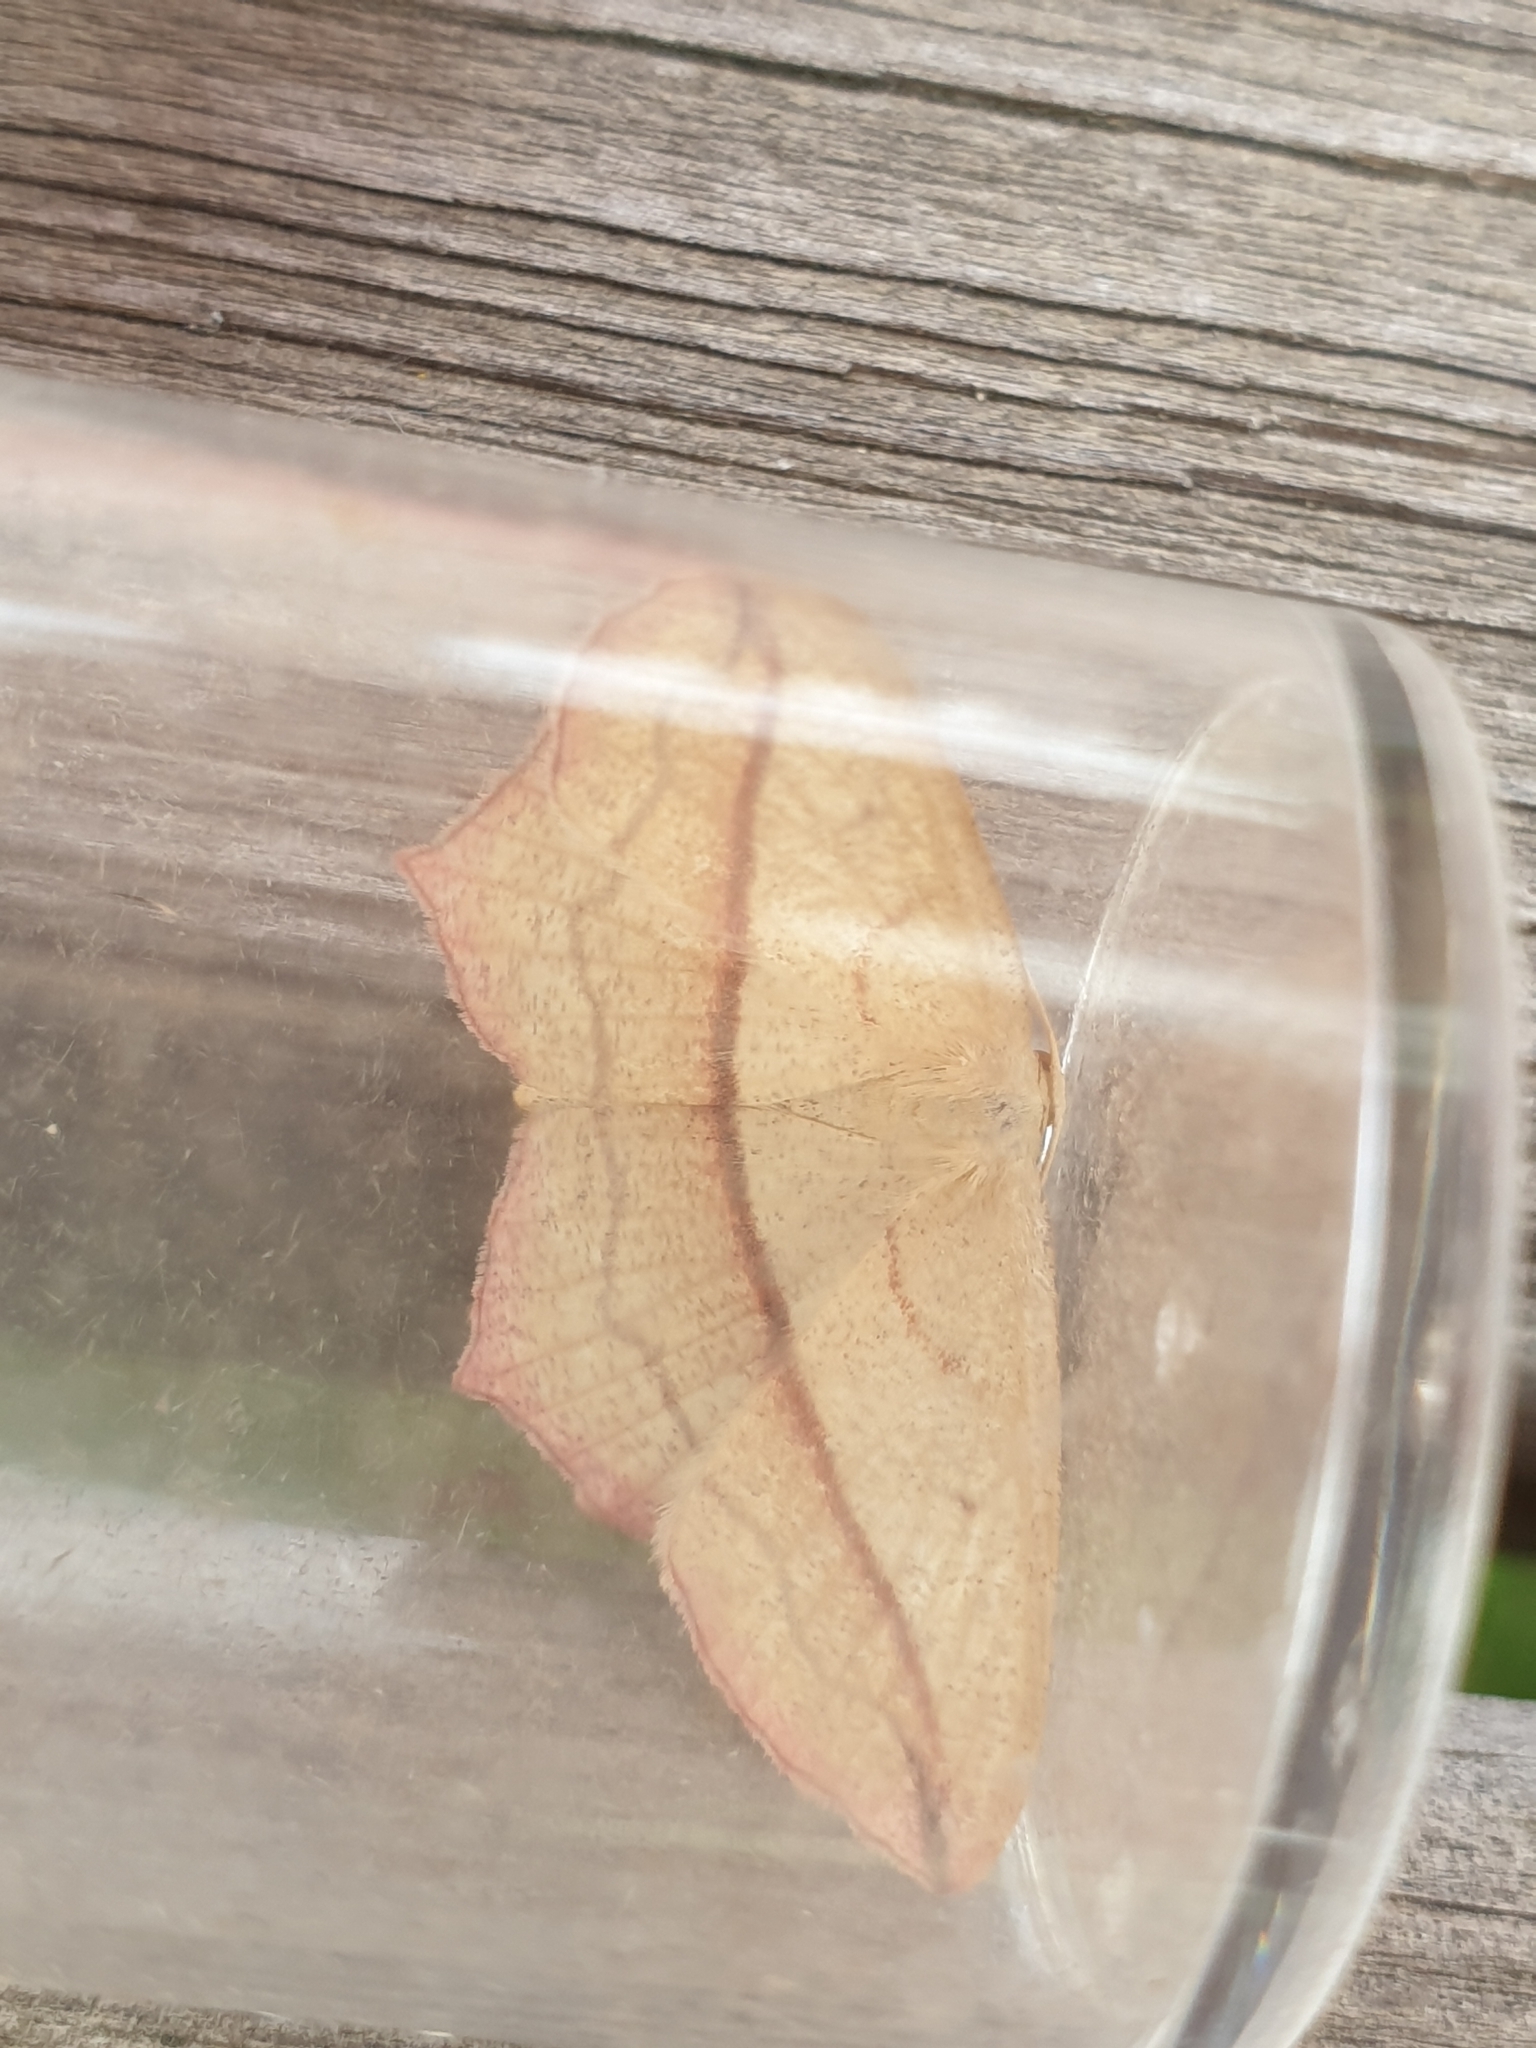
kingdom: Animalia
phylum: Arthropoda
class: Insecta
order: Lepidoptera
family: Geometridae
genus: Timandra
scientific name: Timandra comae
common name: Blood-vein
